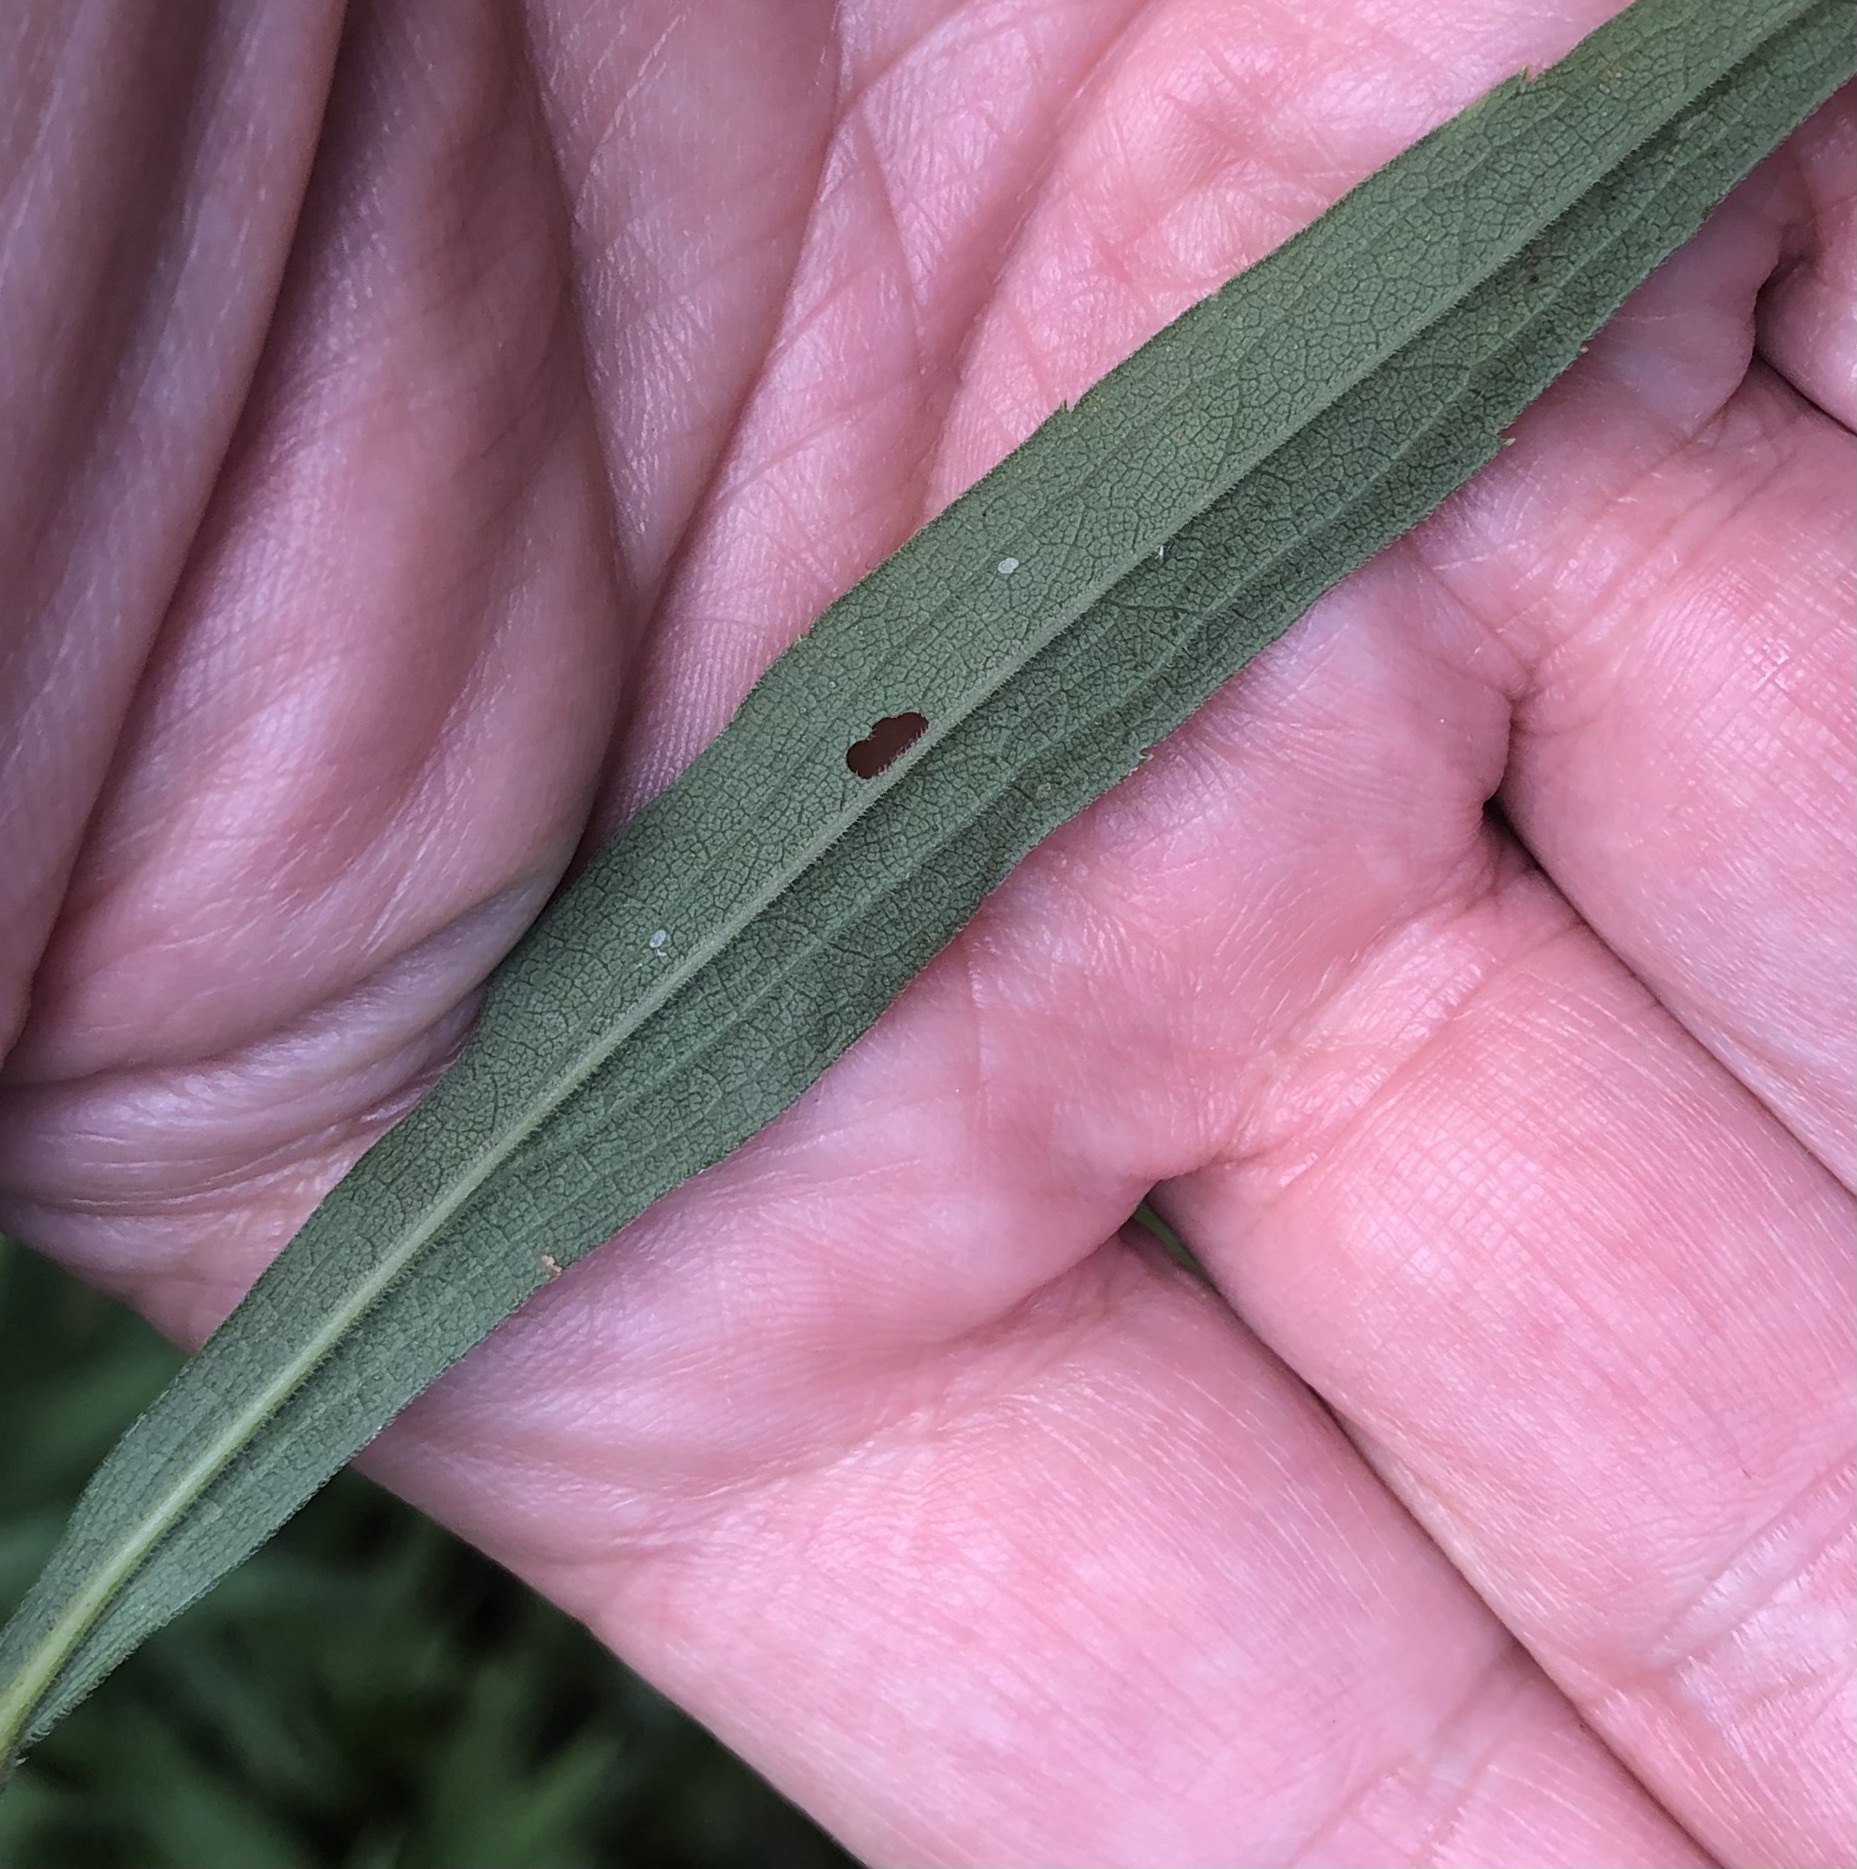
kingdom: Animalia
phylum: Arthropoda
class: Insecta
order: Diptera
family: Agromyzidae
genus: Ophiomyia
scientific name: Ophiomyia maura
